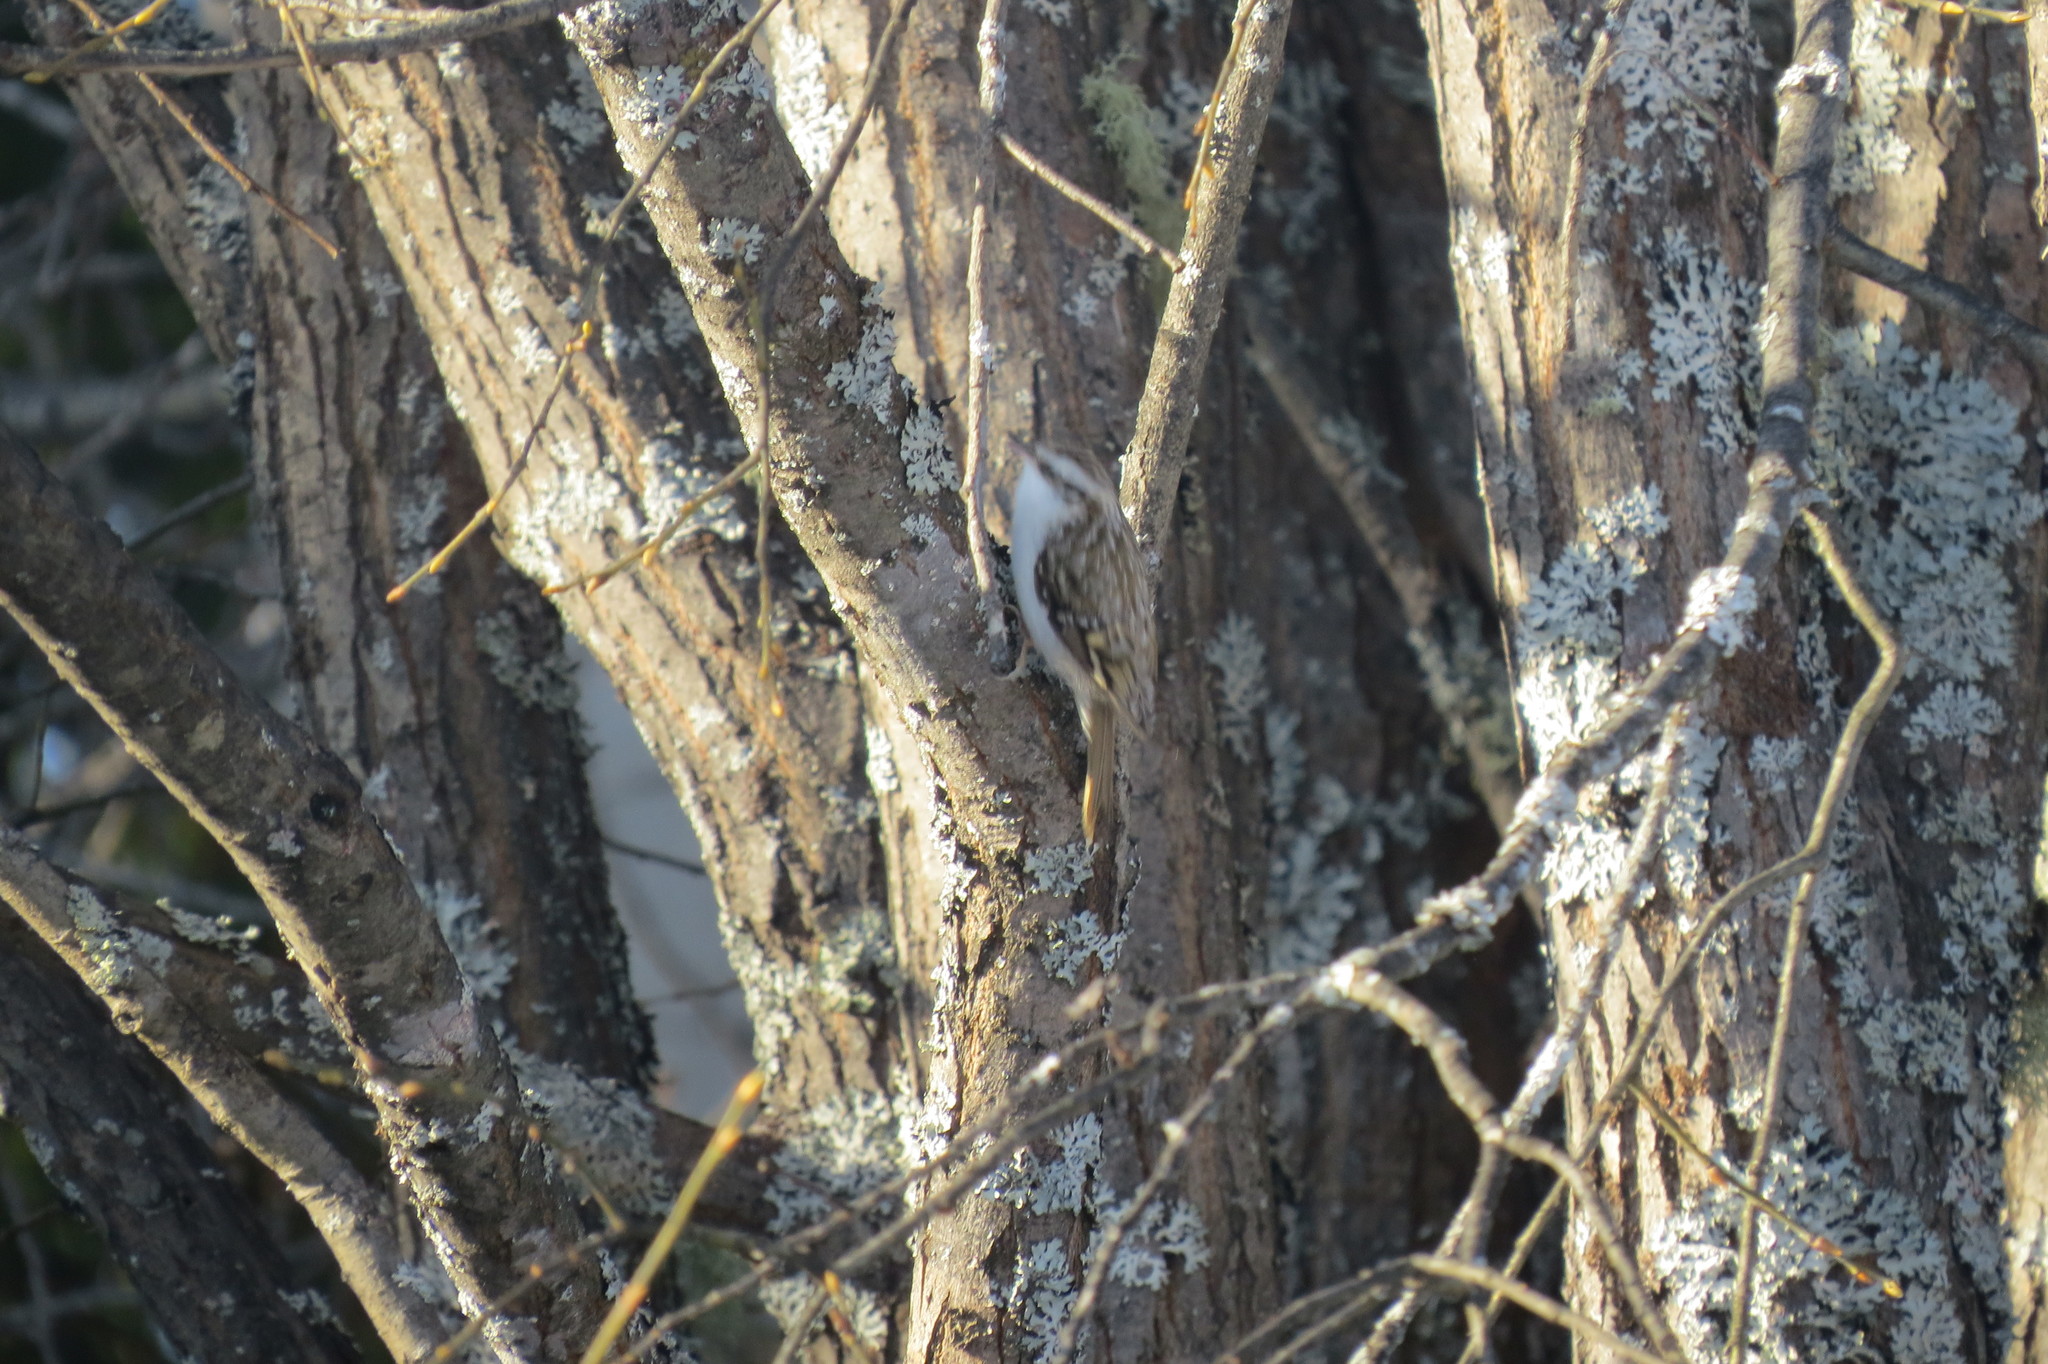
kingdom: Animalia
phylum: Chordata
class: Aves
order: Passeriformes
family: Certhiidae
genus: Certhia
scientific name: Certhia familiaris
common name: Eurasian treecreeper
